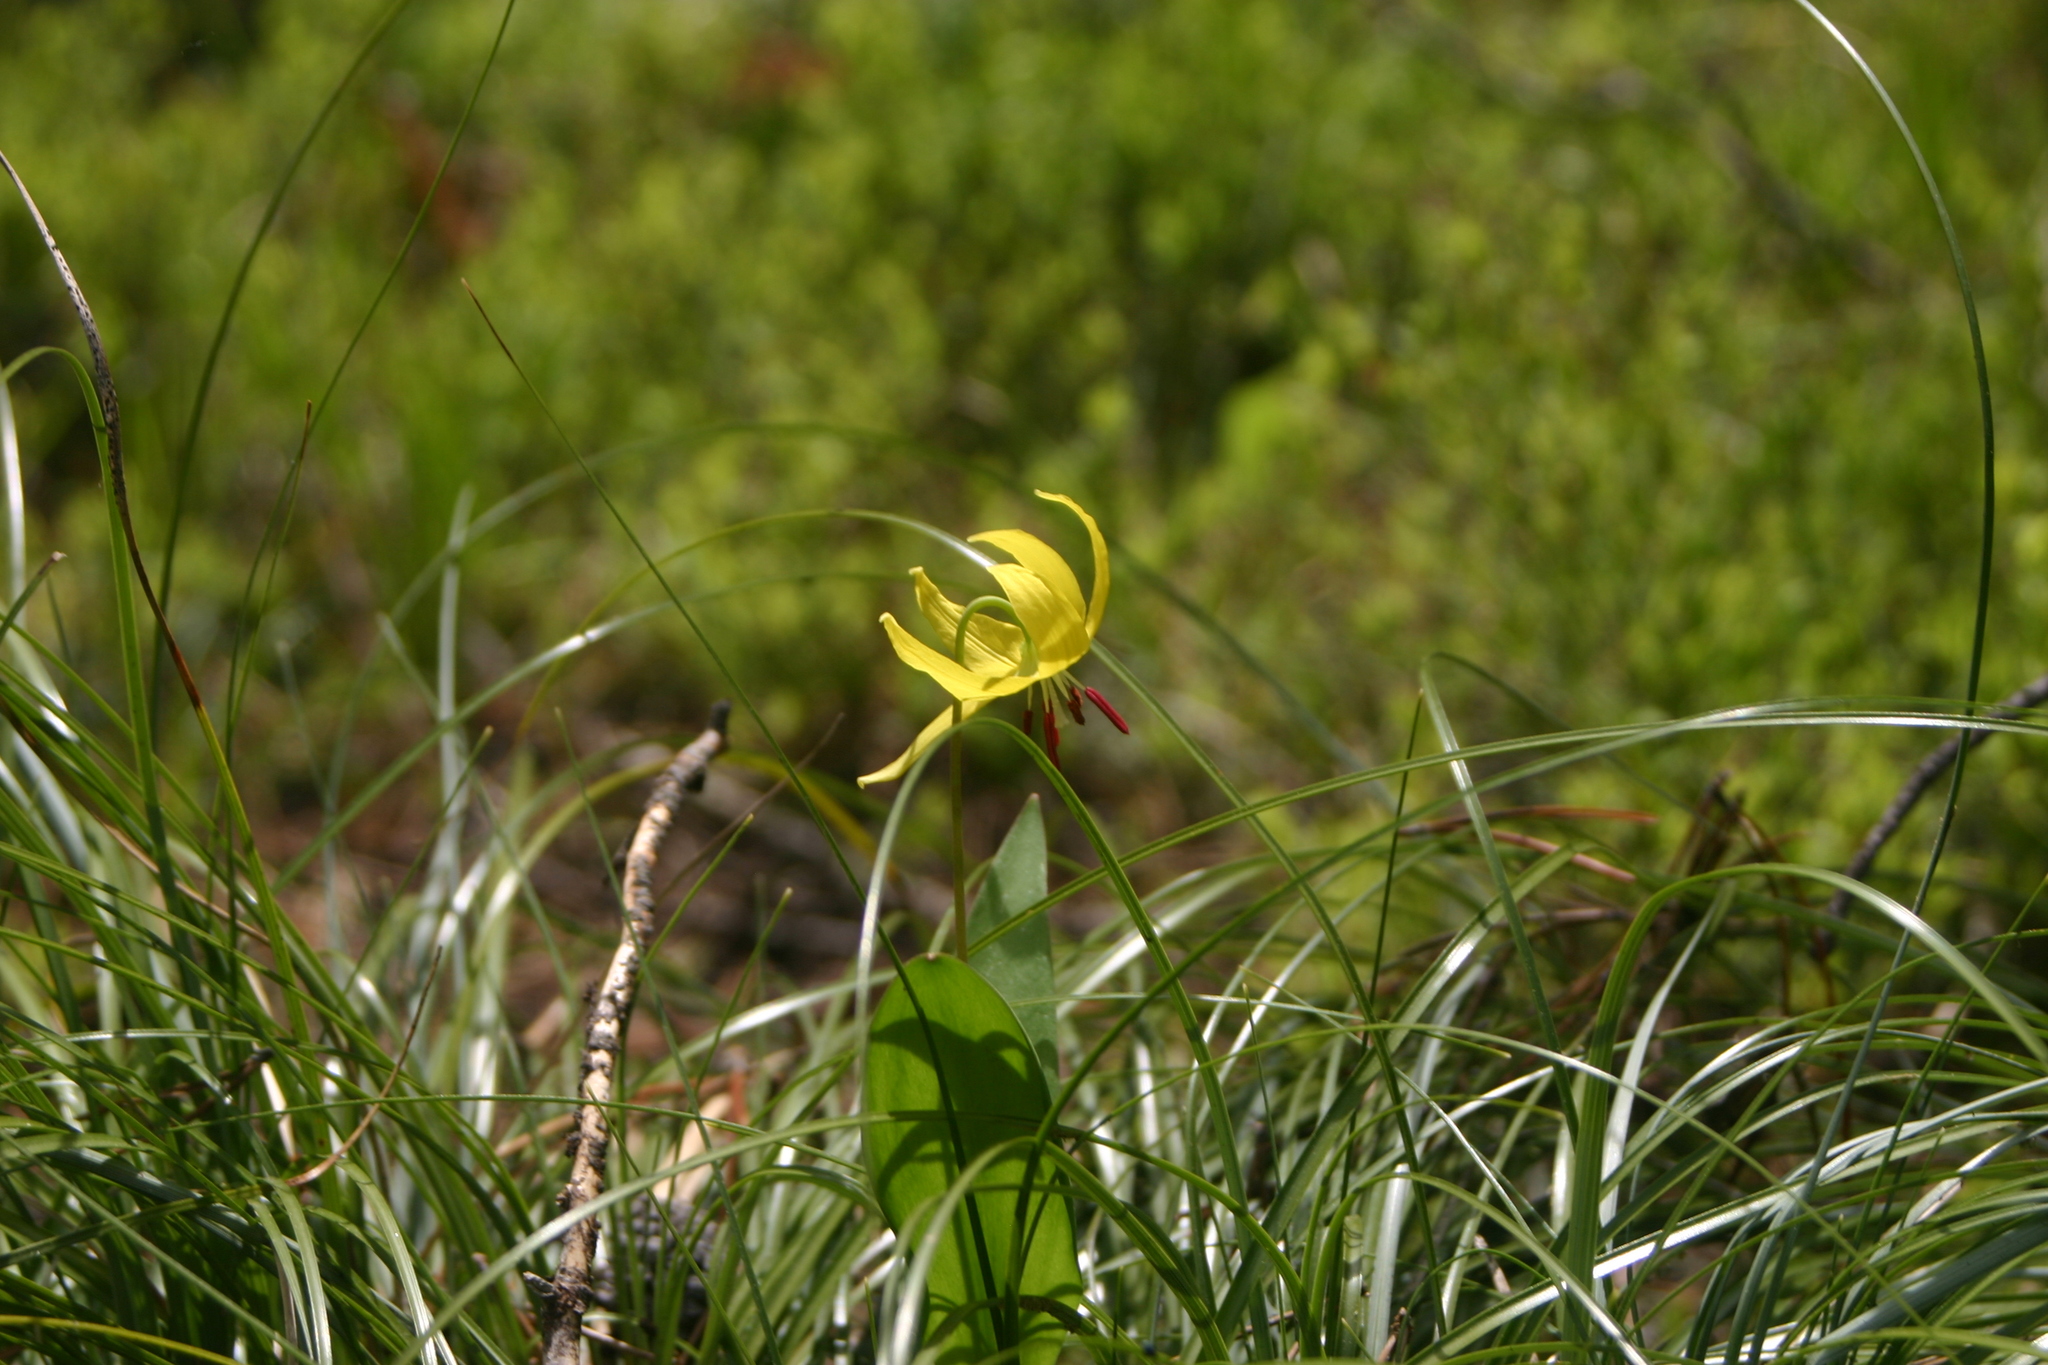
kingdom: Plantae
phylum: Tracheophyta
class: Liliopsida
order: Liliales
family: Liliaceae
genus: Erythronium
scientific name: Erythronium grandiflorum
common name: Avalanche-lily
